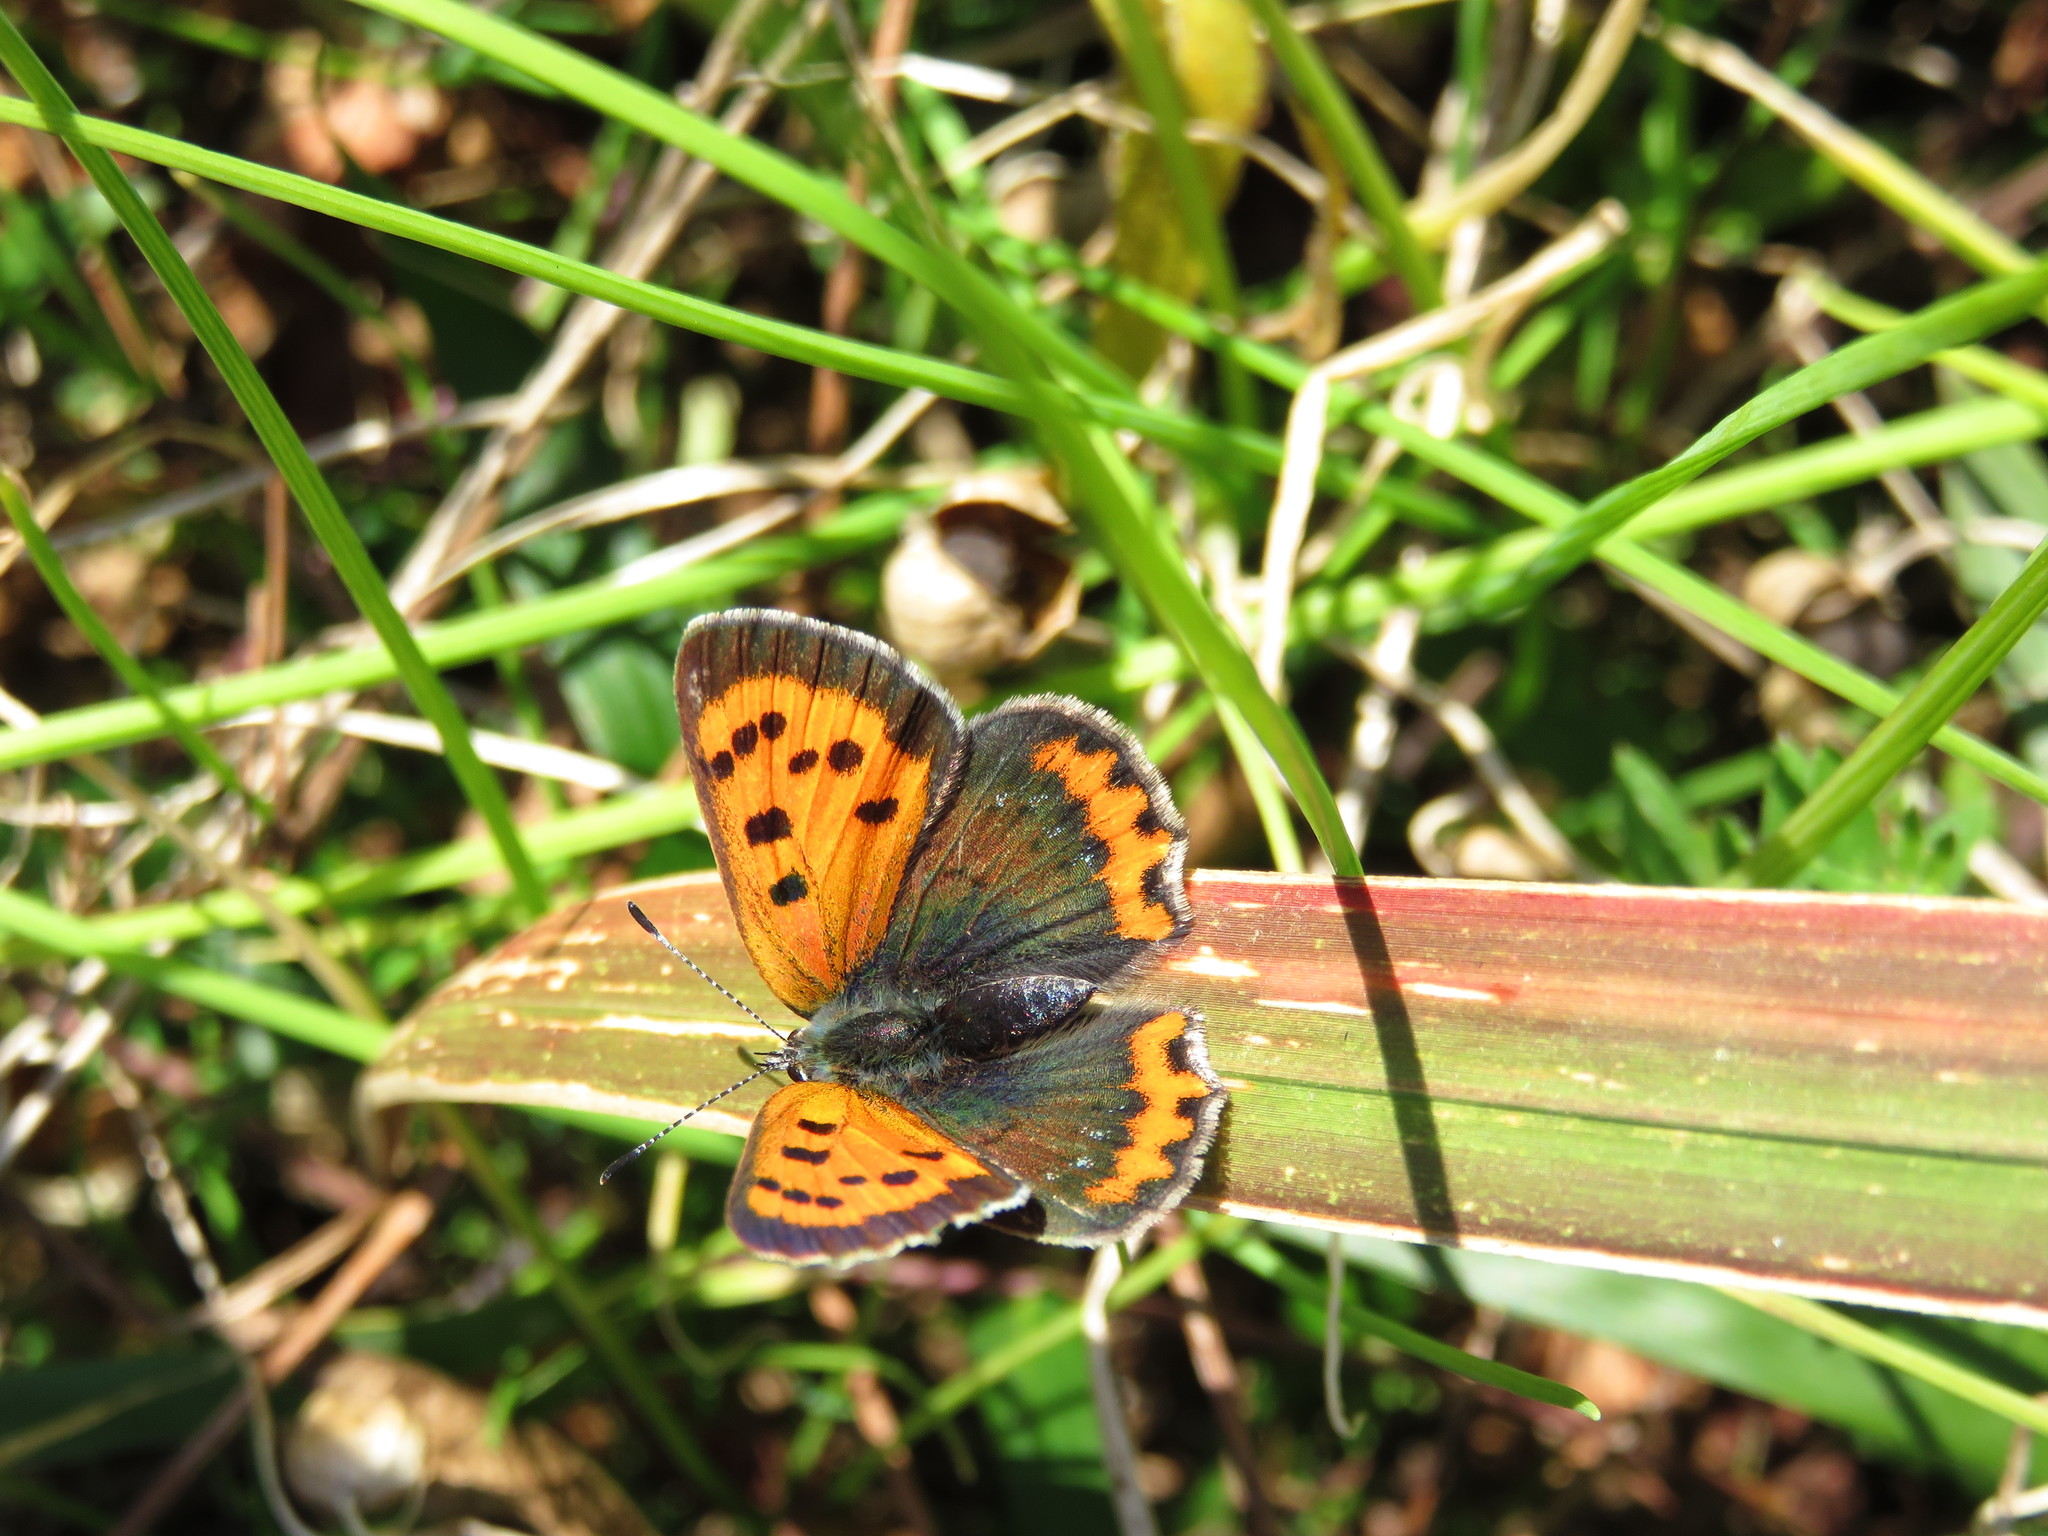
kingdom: Animalia
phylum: Arthropoda
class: Insecta
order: Lepidoptera
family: Lycaenidae
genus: Lycaena
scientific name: Lycaena phlaeas
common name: Small copper
